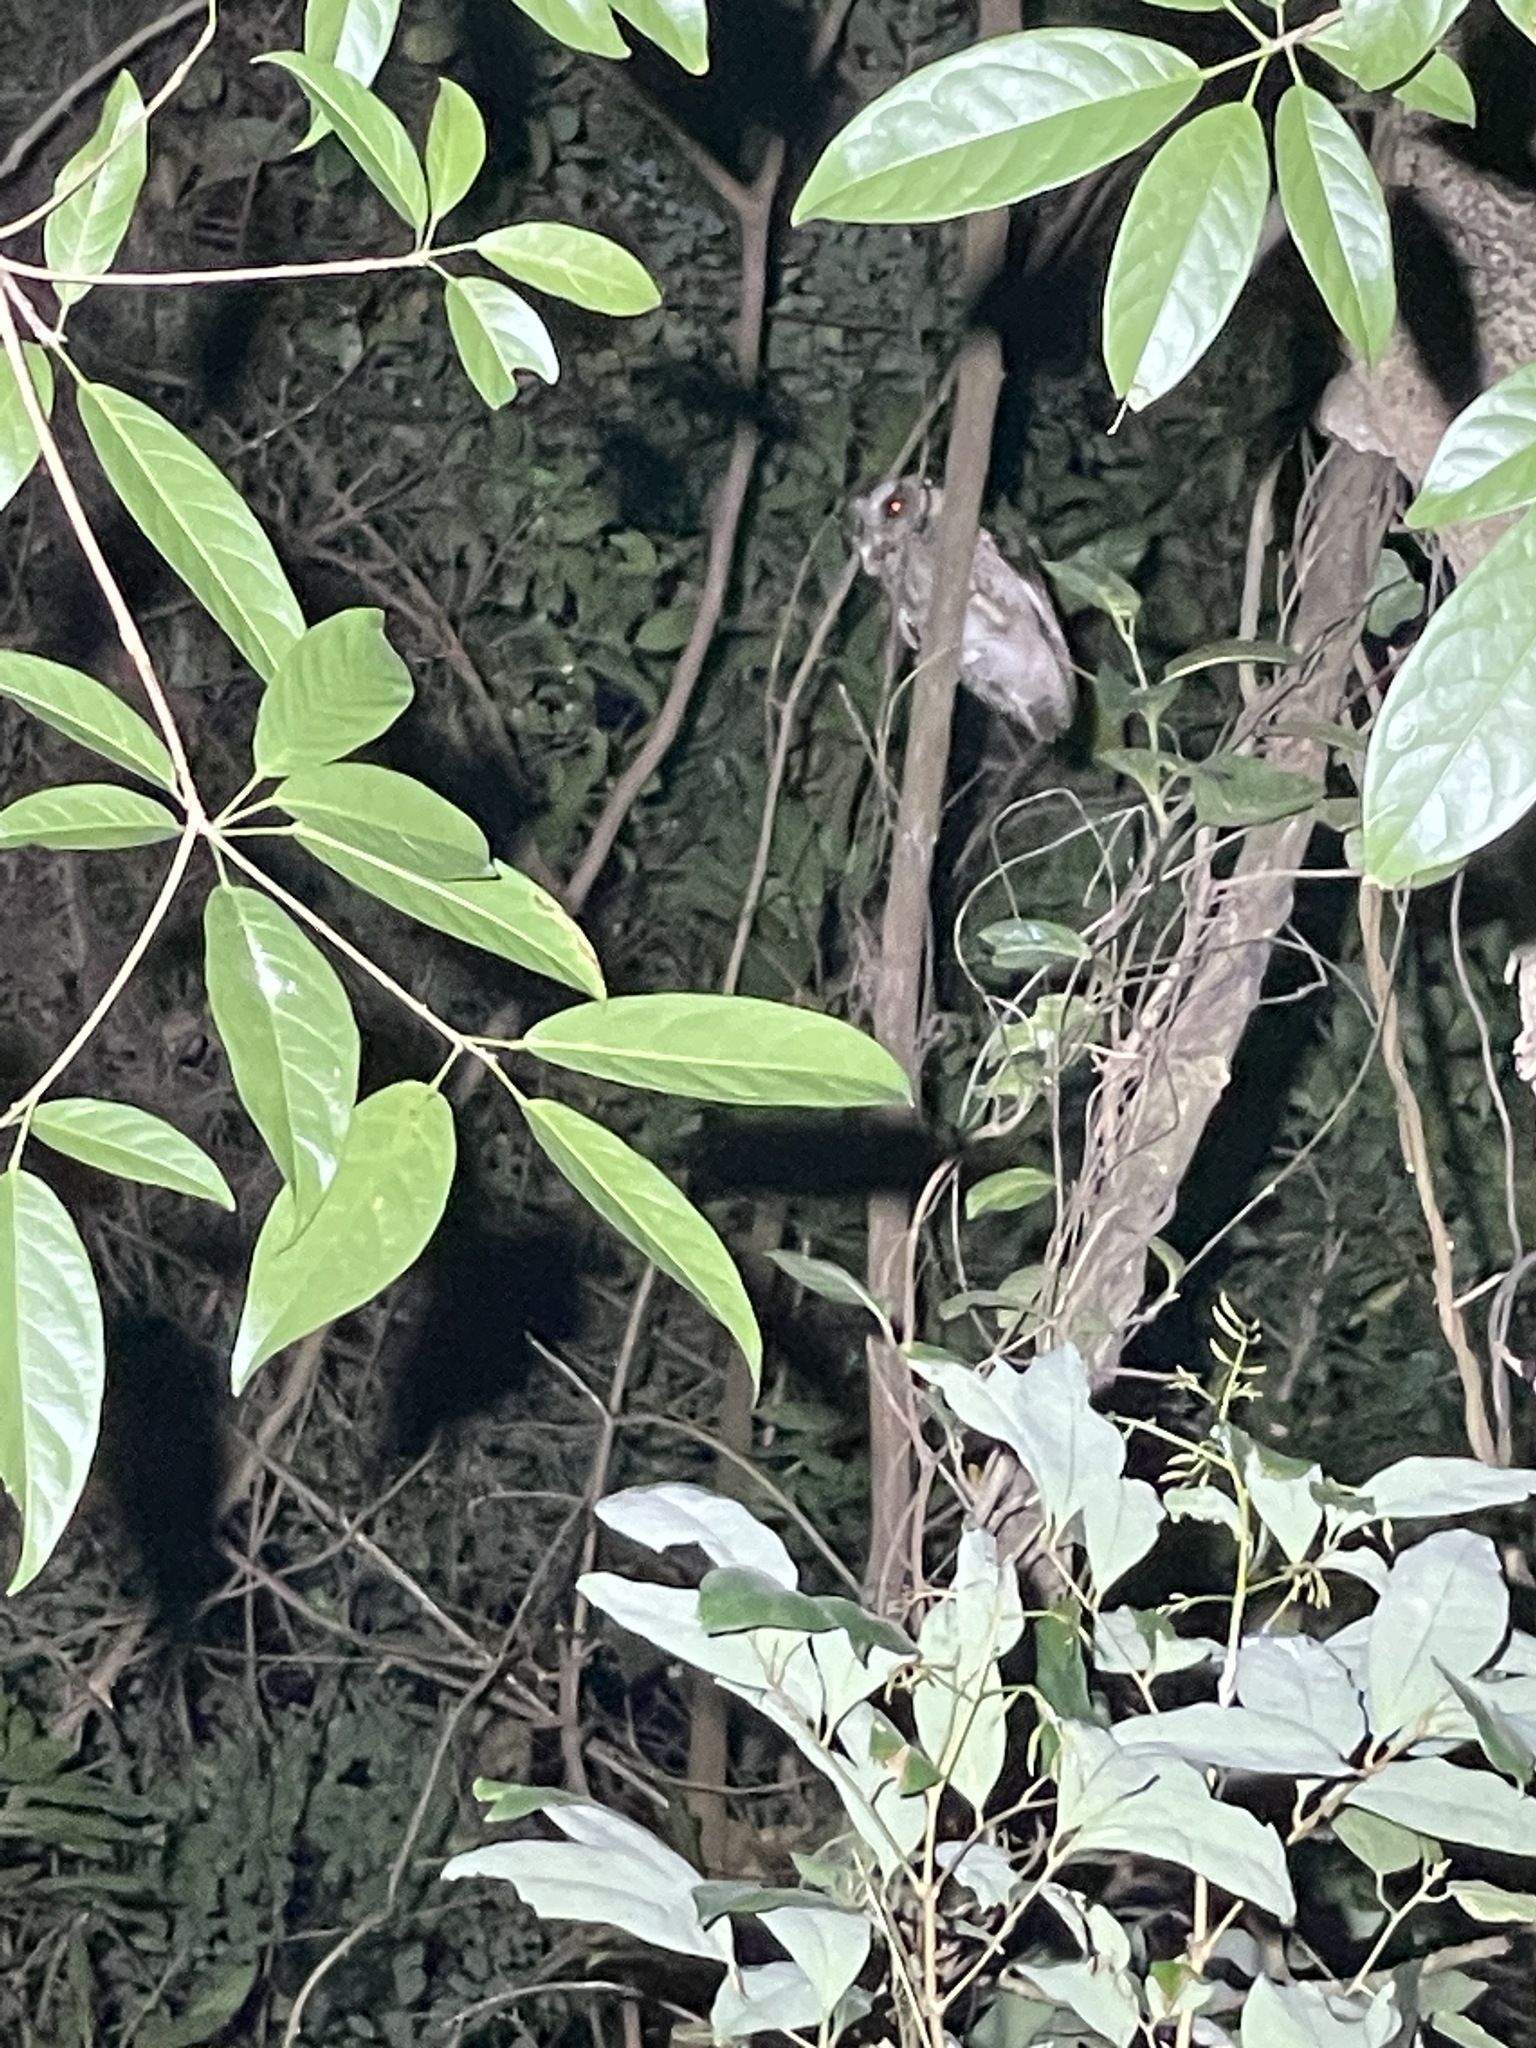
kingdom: Animalia
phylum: Chordata
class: Aves
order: Strigiformes
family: Strigidae
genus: Otus
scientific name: Otus lettia
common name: Collared scops owl
